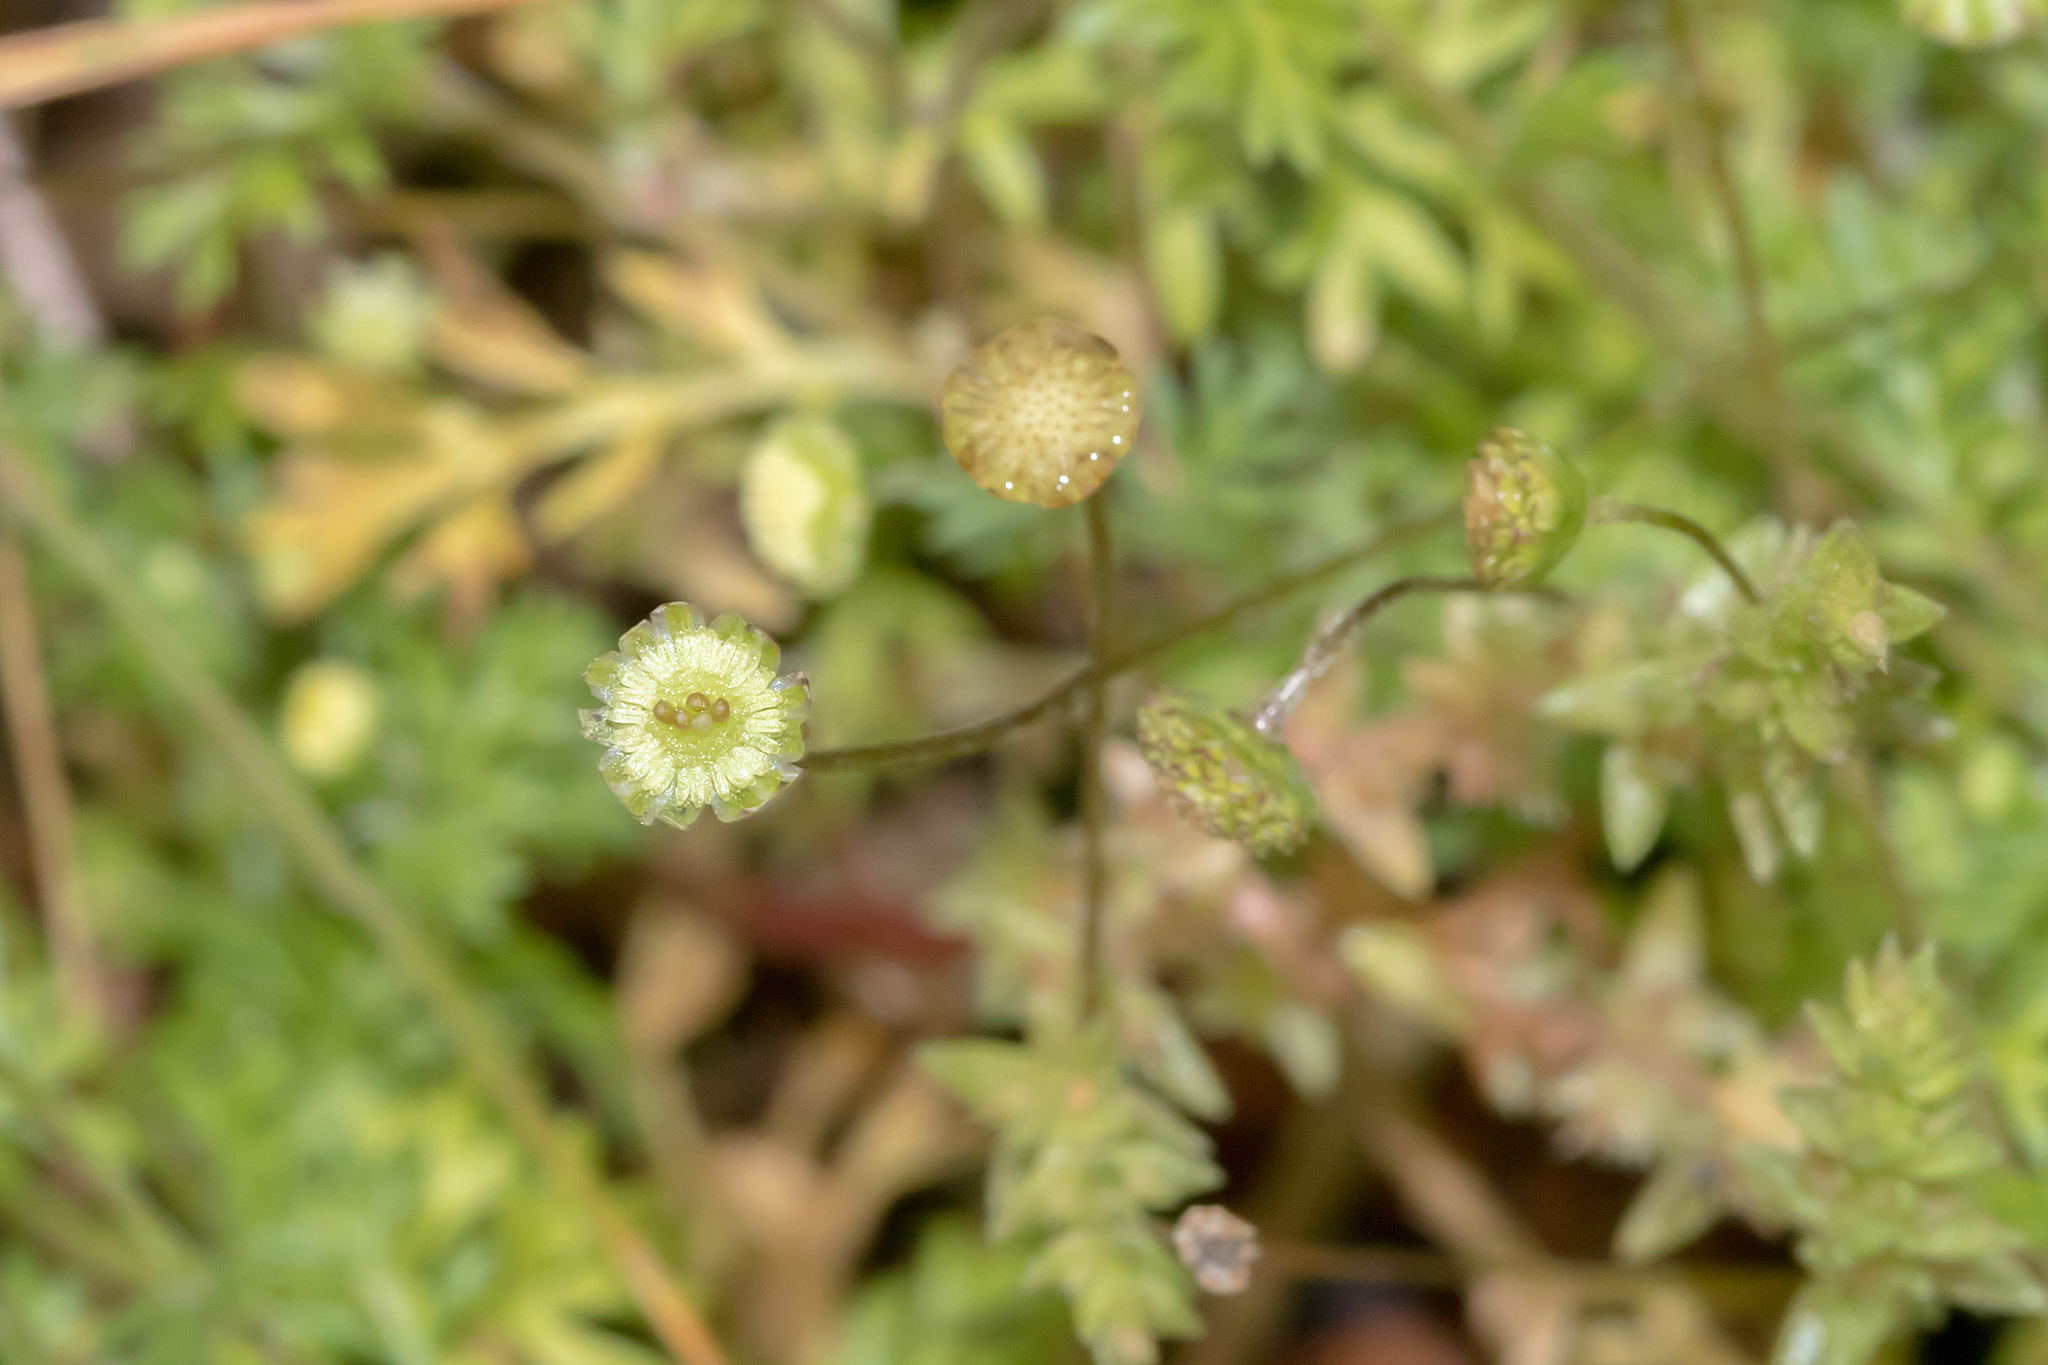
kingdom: Plantae
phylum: Tracheophyta
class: Magnoliopsida
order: Asterales
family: Asteraceae
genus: Cotula
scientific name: Cotula australis
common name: Australian waterbuttons
